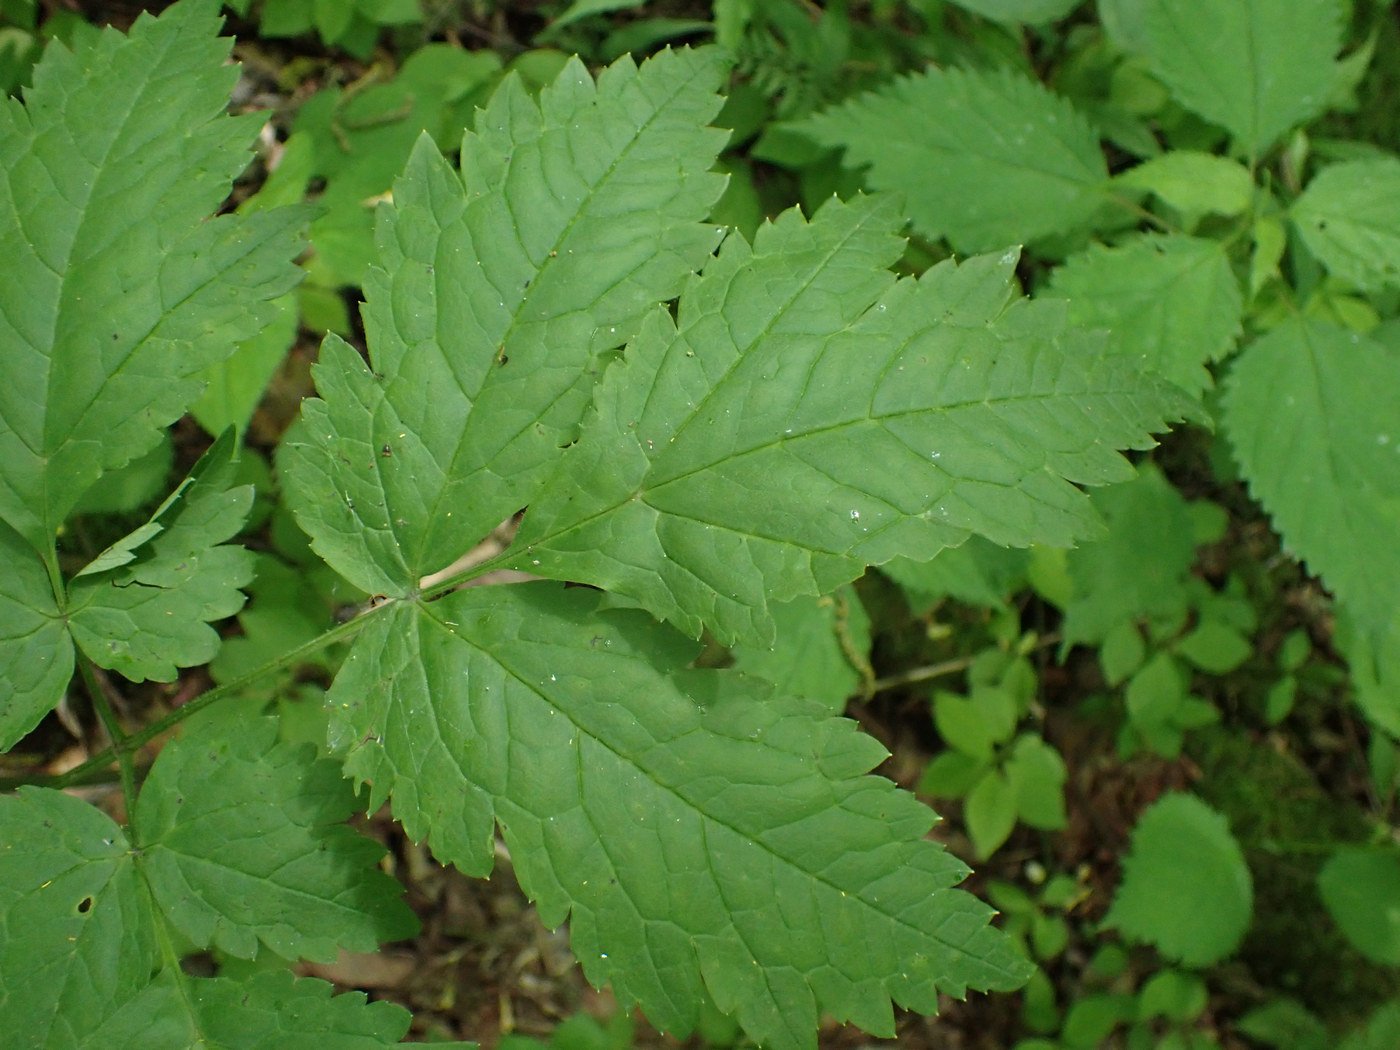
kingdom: Plantae
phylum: Tracheophyta
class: Magnoliopsida
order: Ranunculales
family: Ranunculaceae
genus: Actaea
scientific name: Actaea podocarpa
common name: American bugbane
